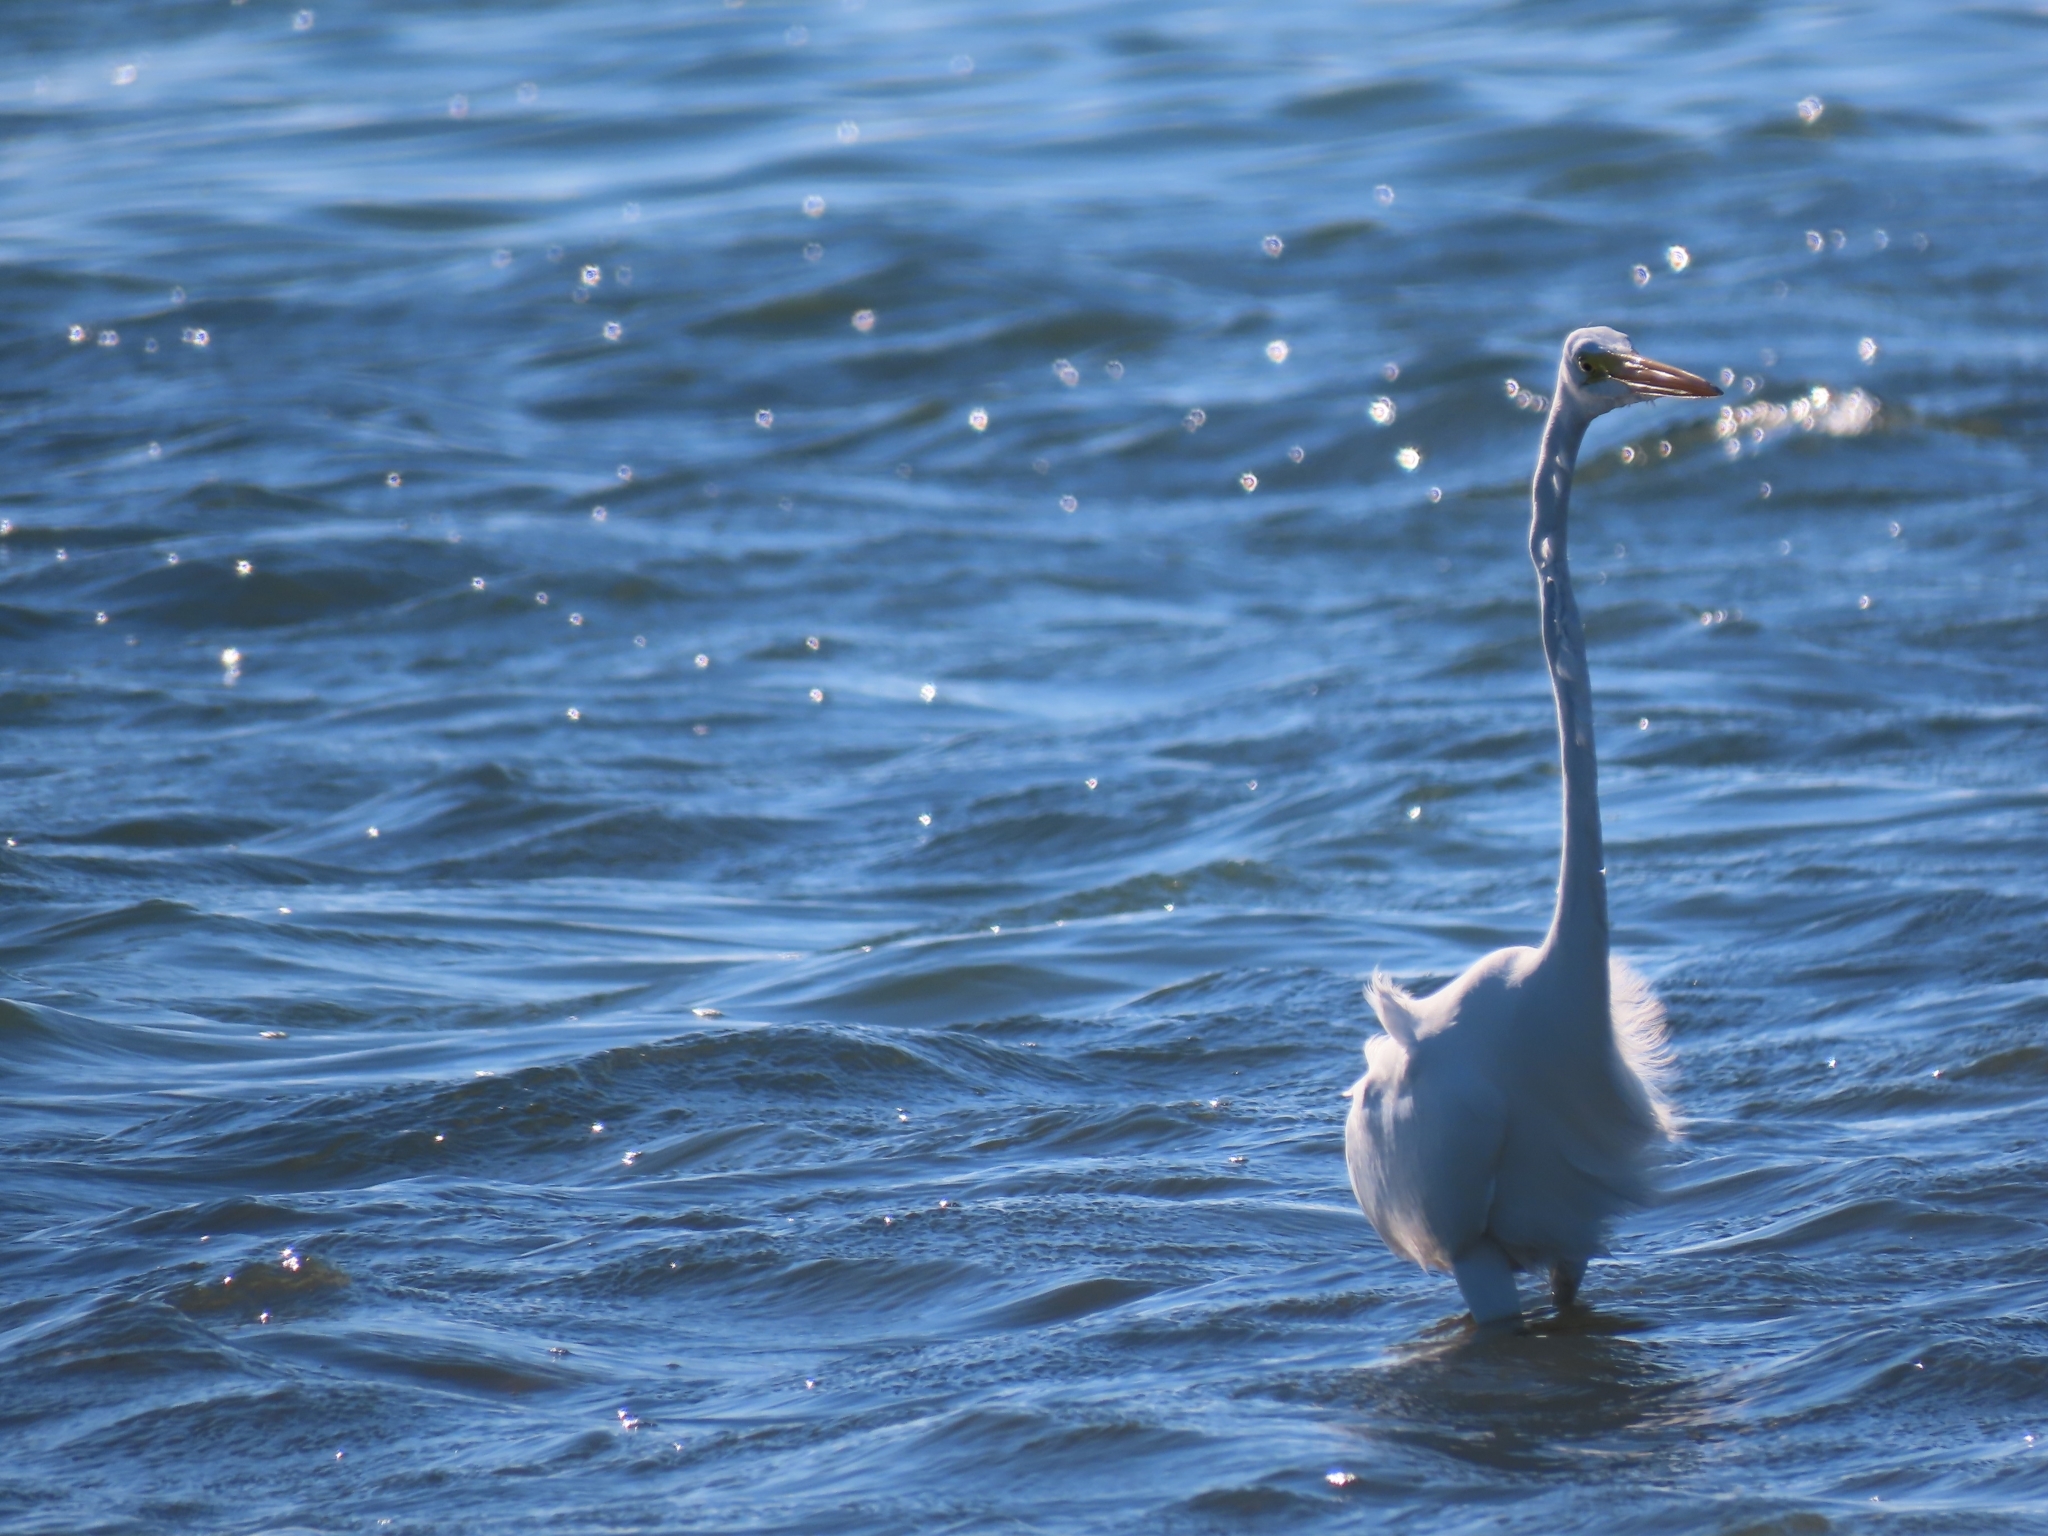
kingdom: Animalia
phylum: Chordata
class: Aves
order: Pelecaniformes
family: Ardeidae
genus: Ardea
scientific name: Ardea alba
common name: Great egret
